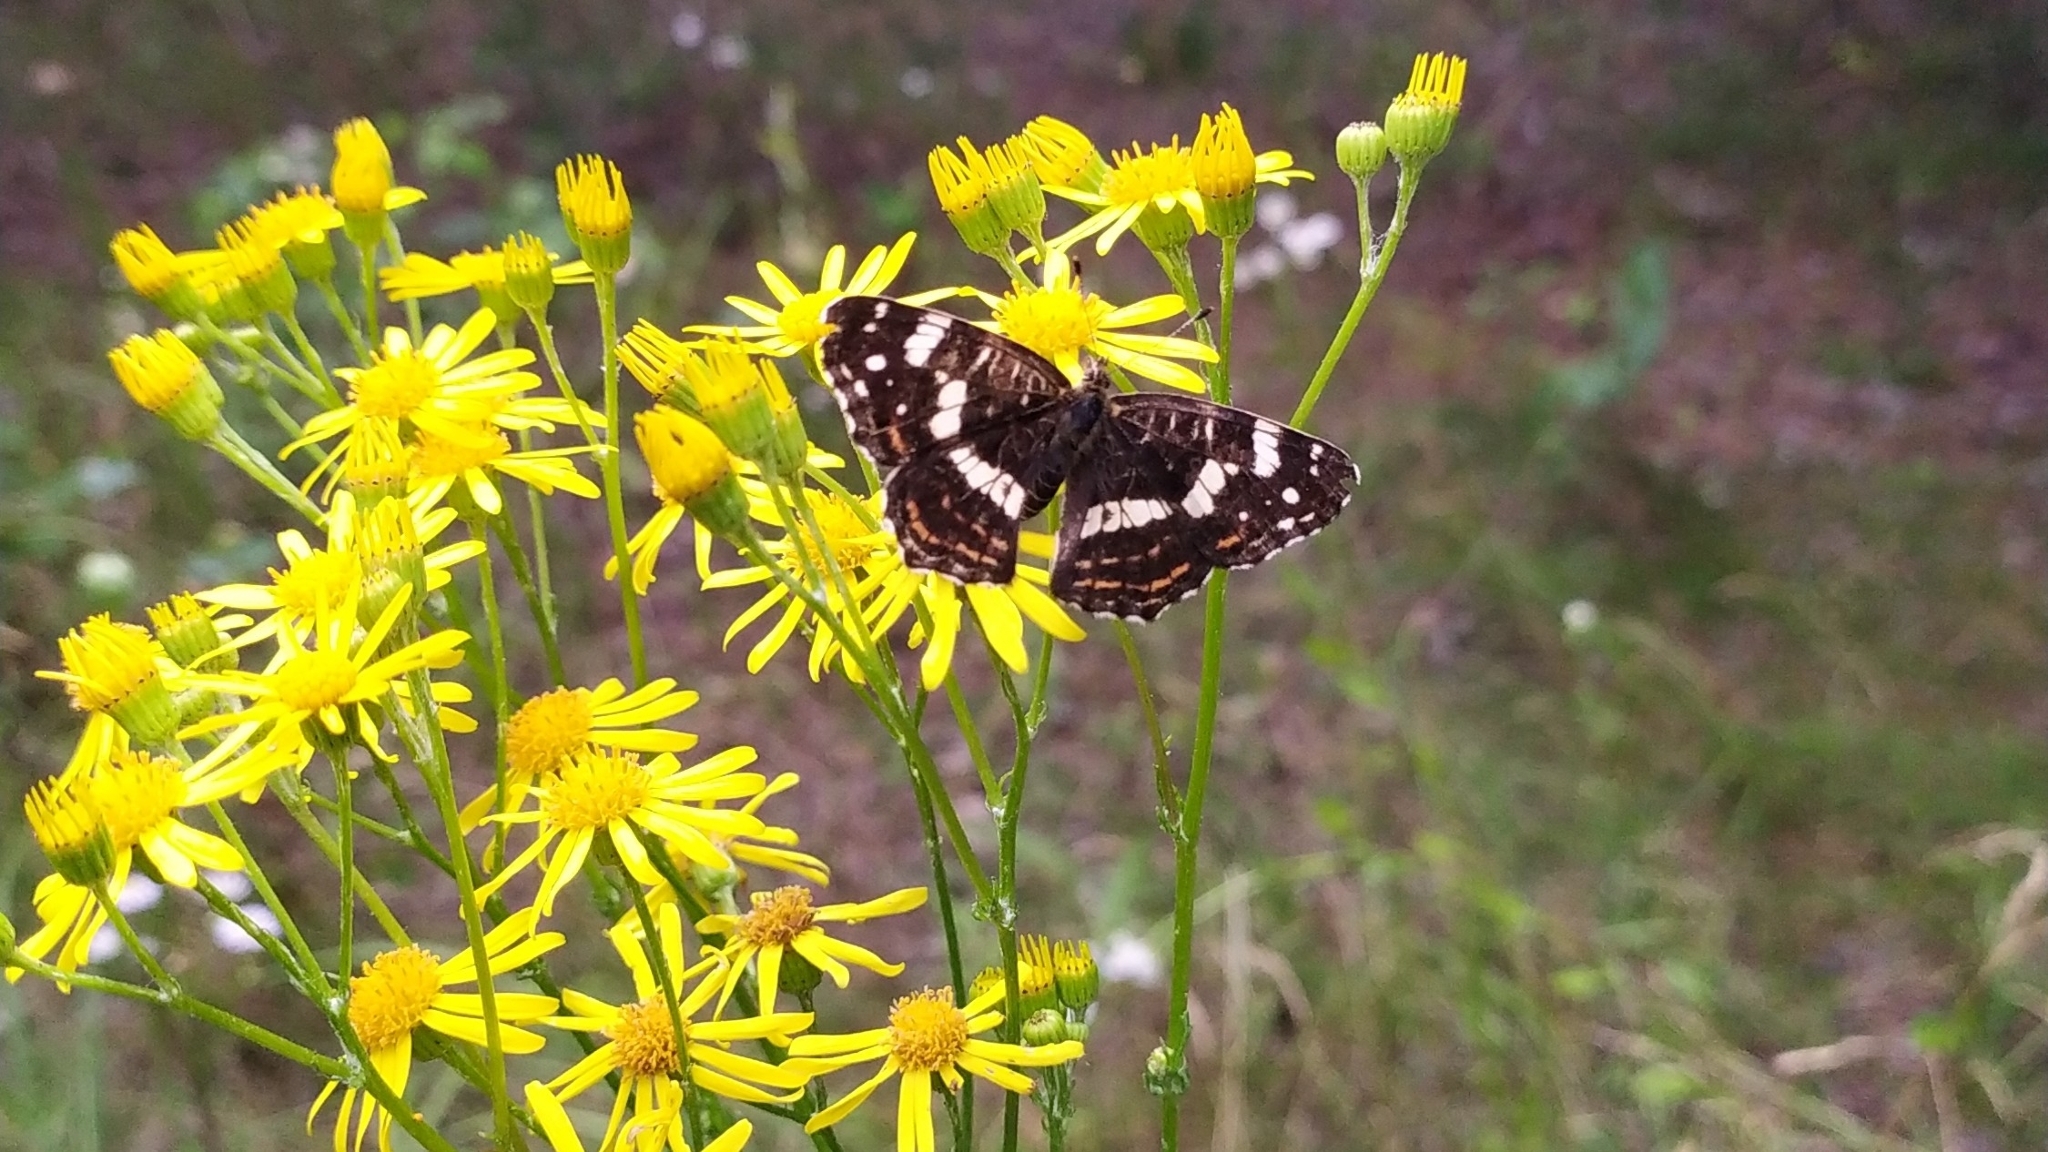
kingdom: Animalia
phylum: Arthropoda
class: Insecta
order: Lepidoptera
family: Nymphalidae
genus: Araschnia
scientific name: Araschnia levana
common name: Map butterfly
